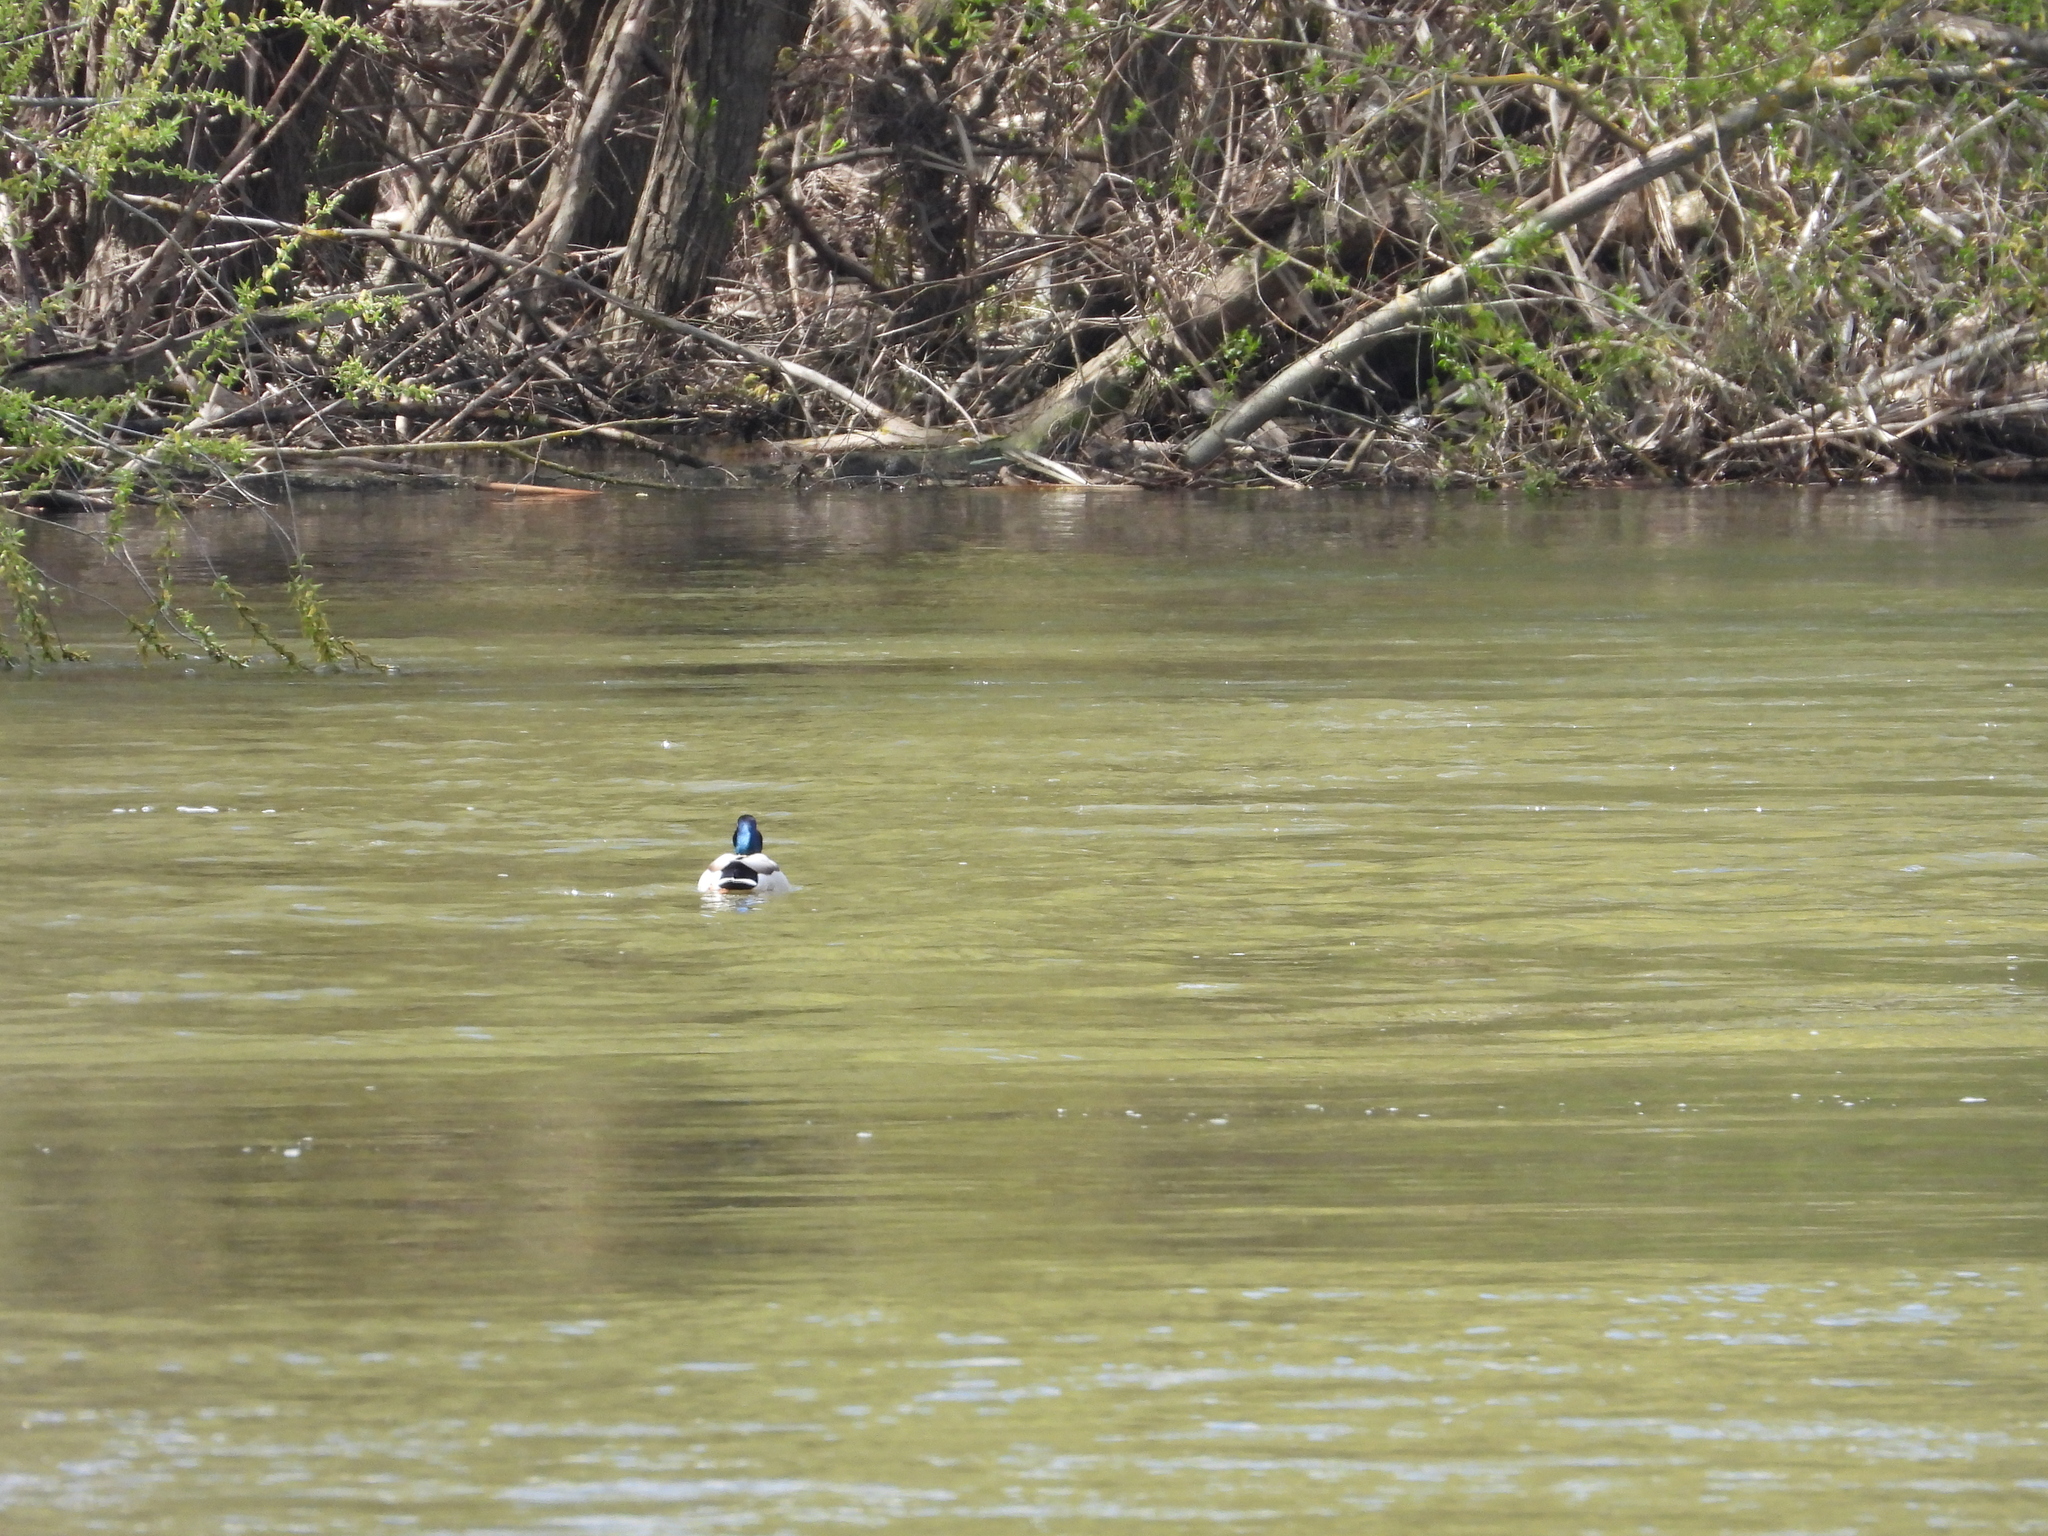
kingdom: Animalia
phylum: Chordata
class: Aves
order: Anseriformes
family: Anatidae
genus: Anas
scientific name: Anas platyrhynchos
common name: Mallard
